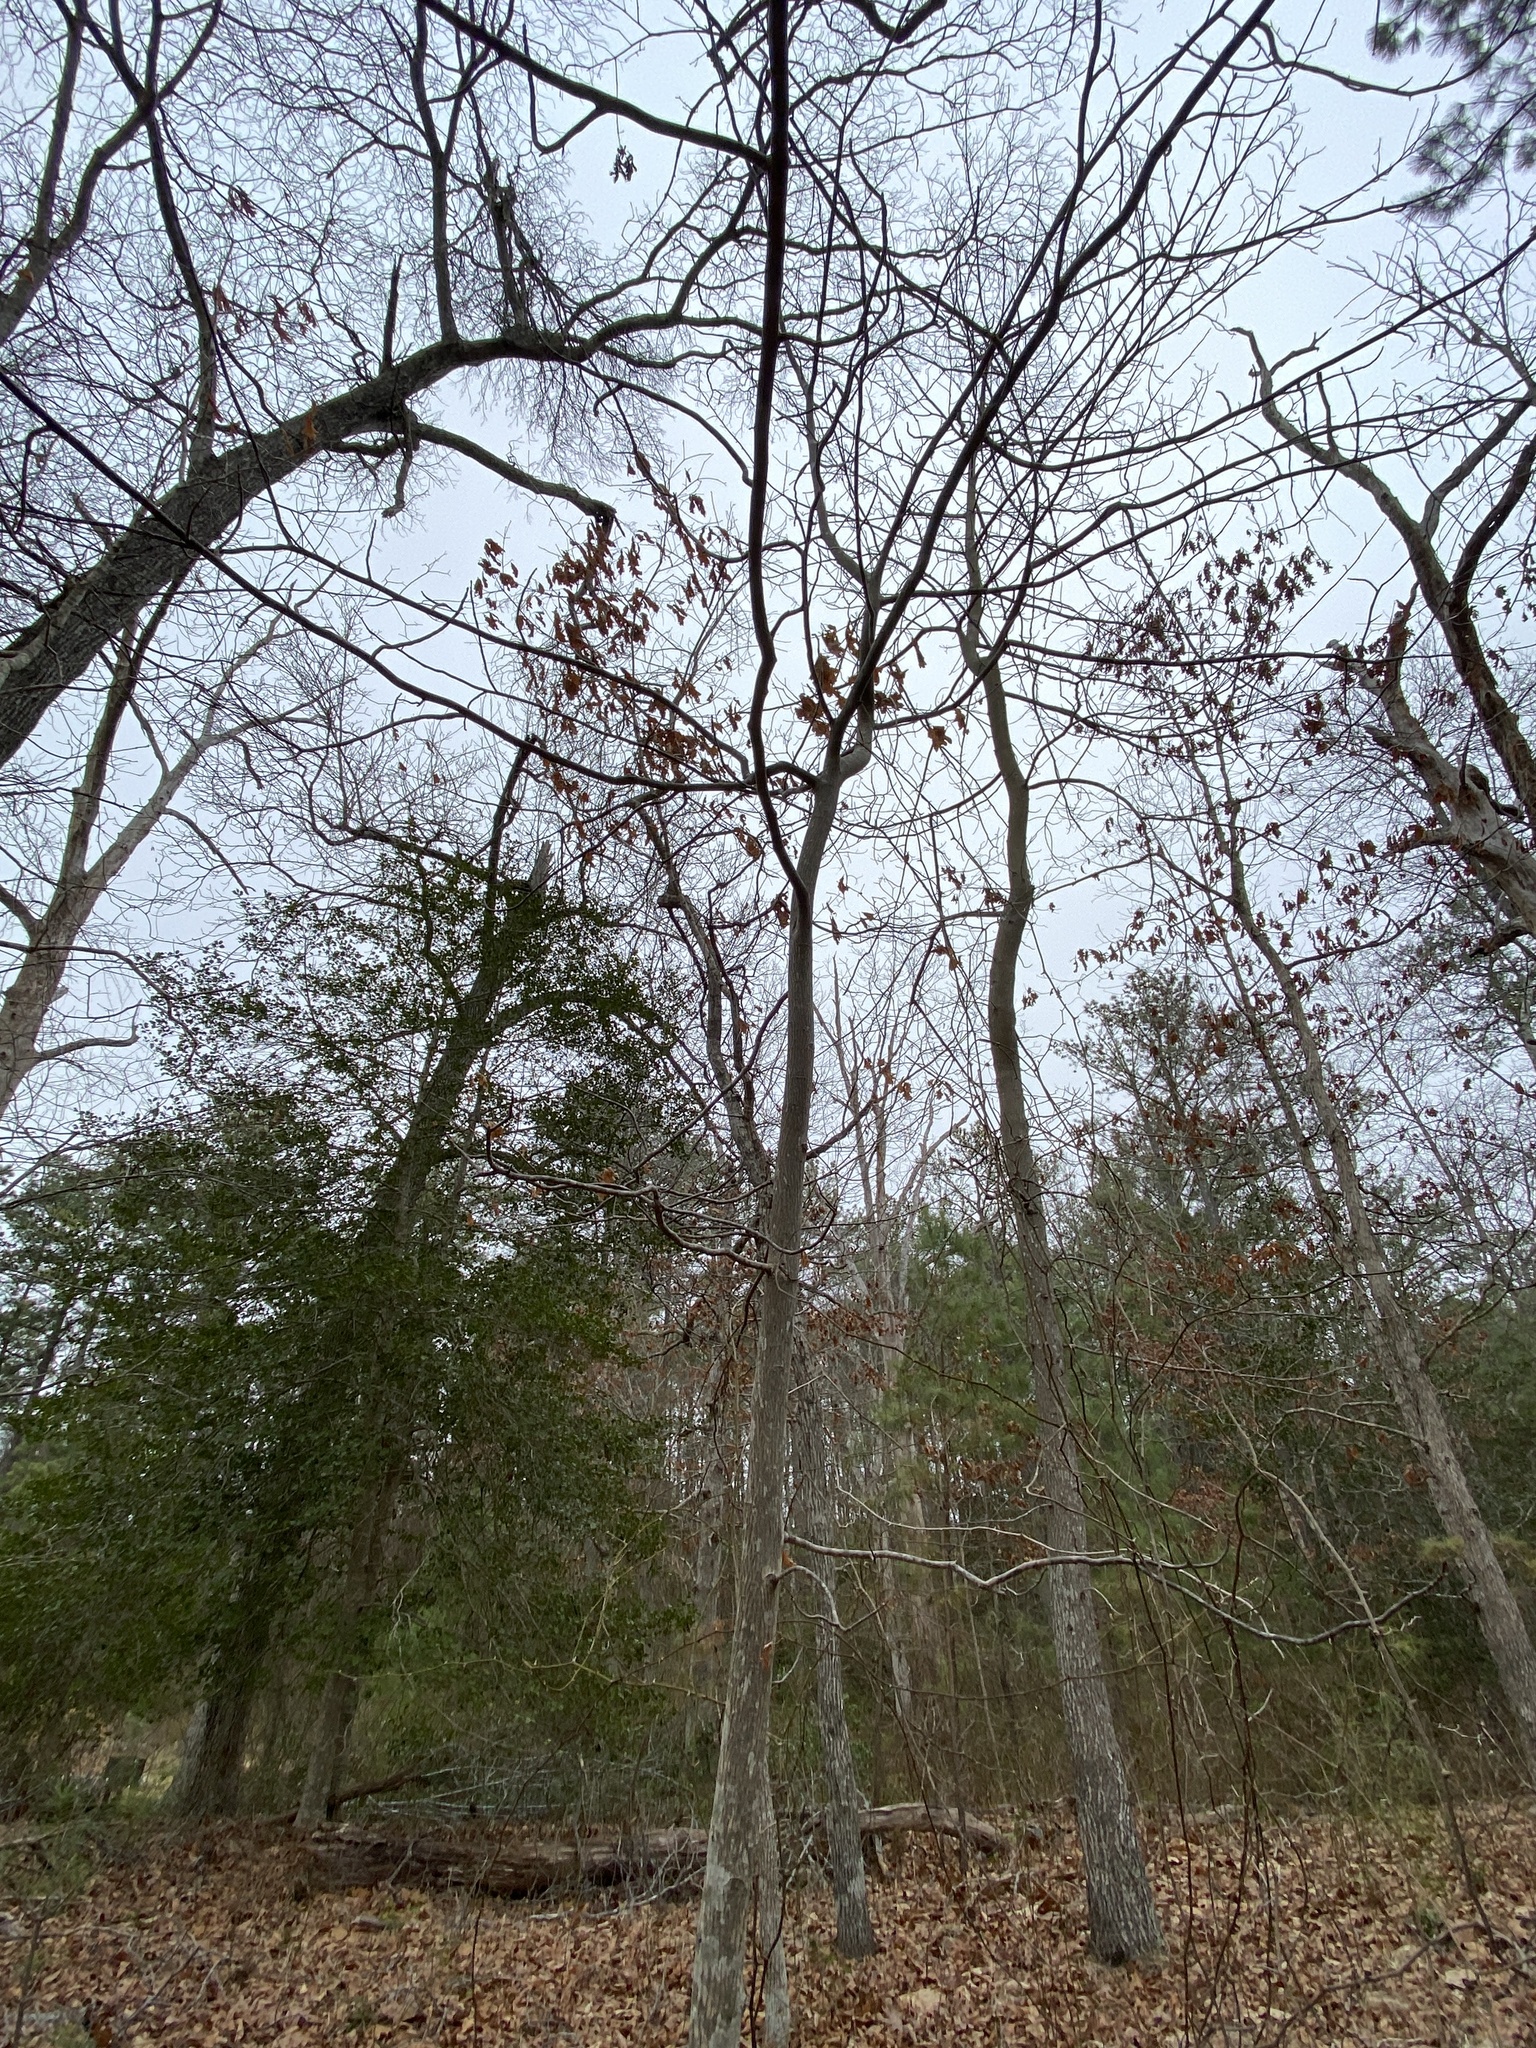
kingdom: Plantae
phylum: Tracheophyta
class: Magnoliopsida
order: Fagales
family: Juglandaceae
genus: Carya
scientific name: Carya glabra
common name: Pignut hickory
